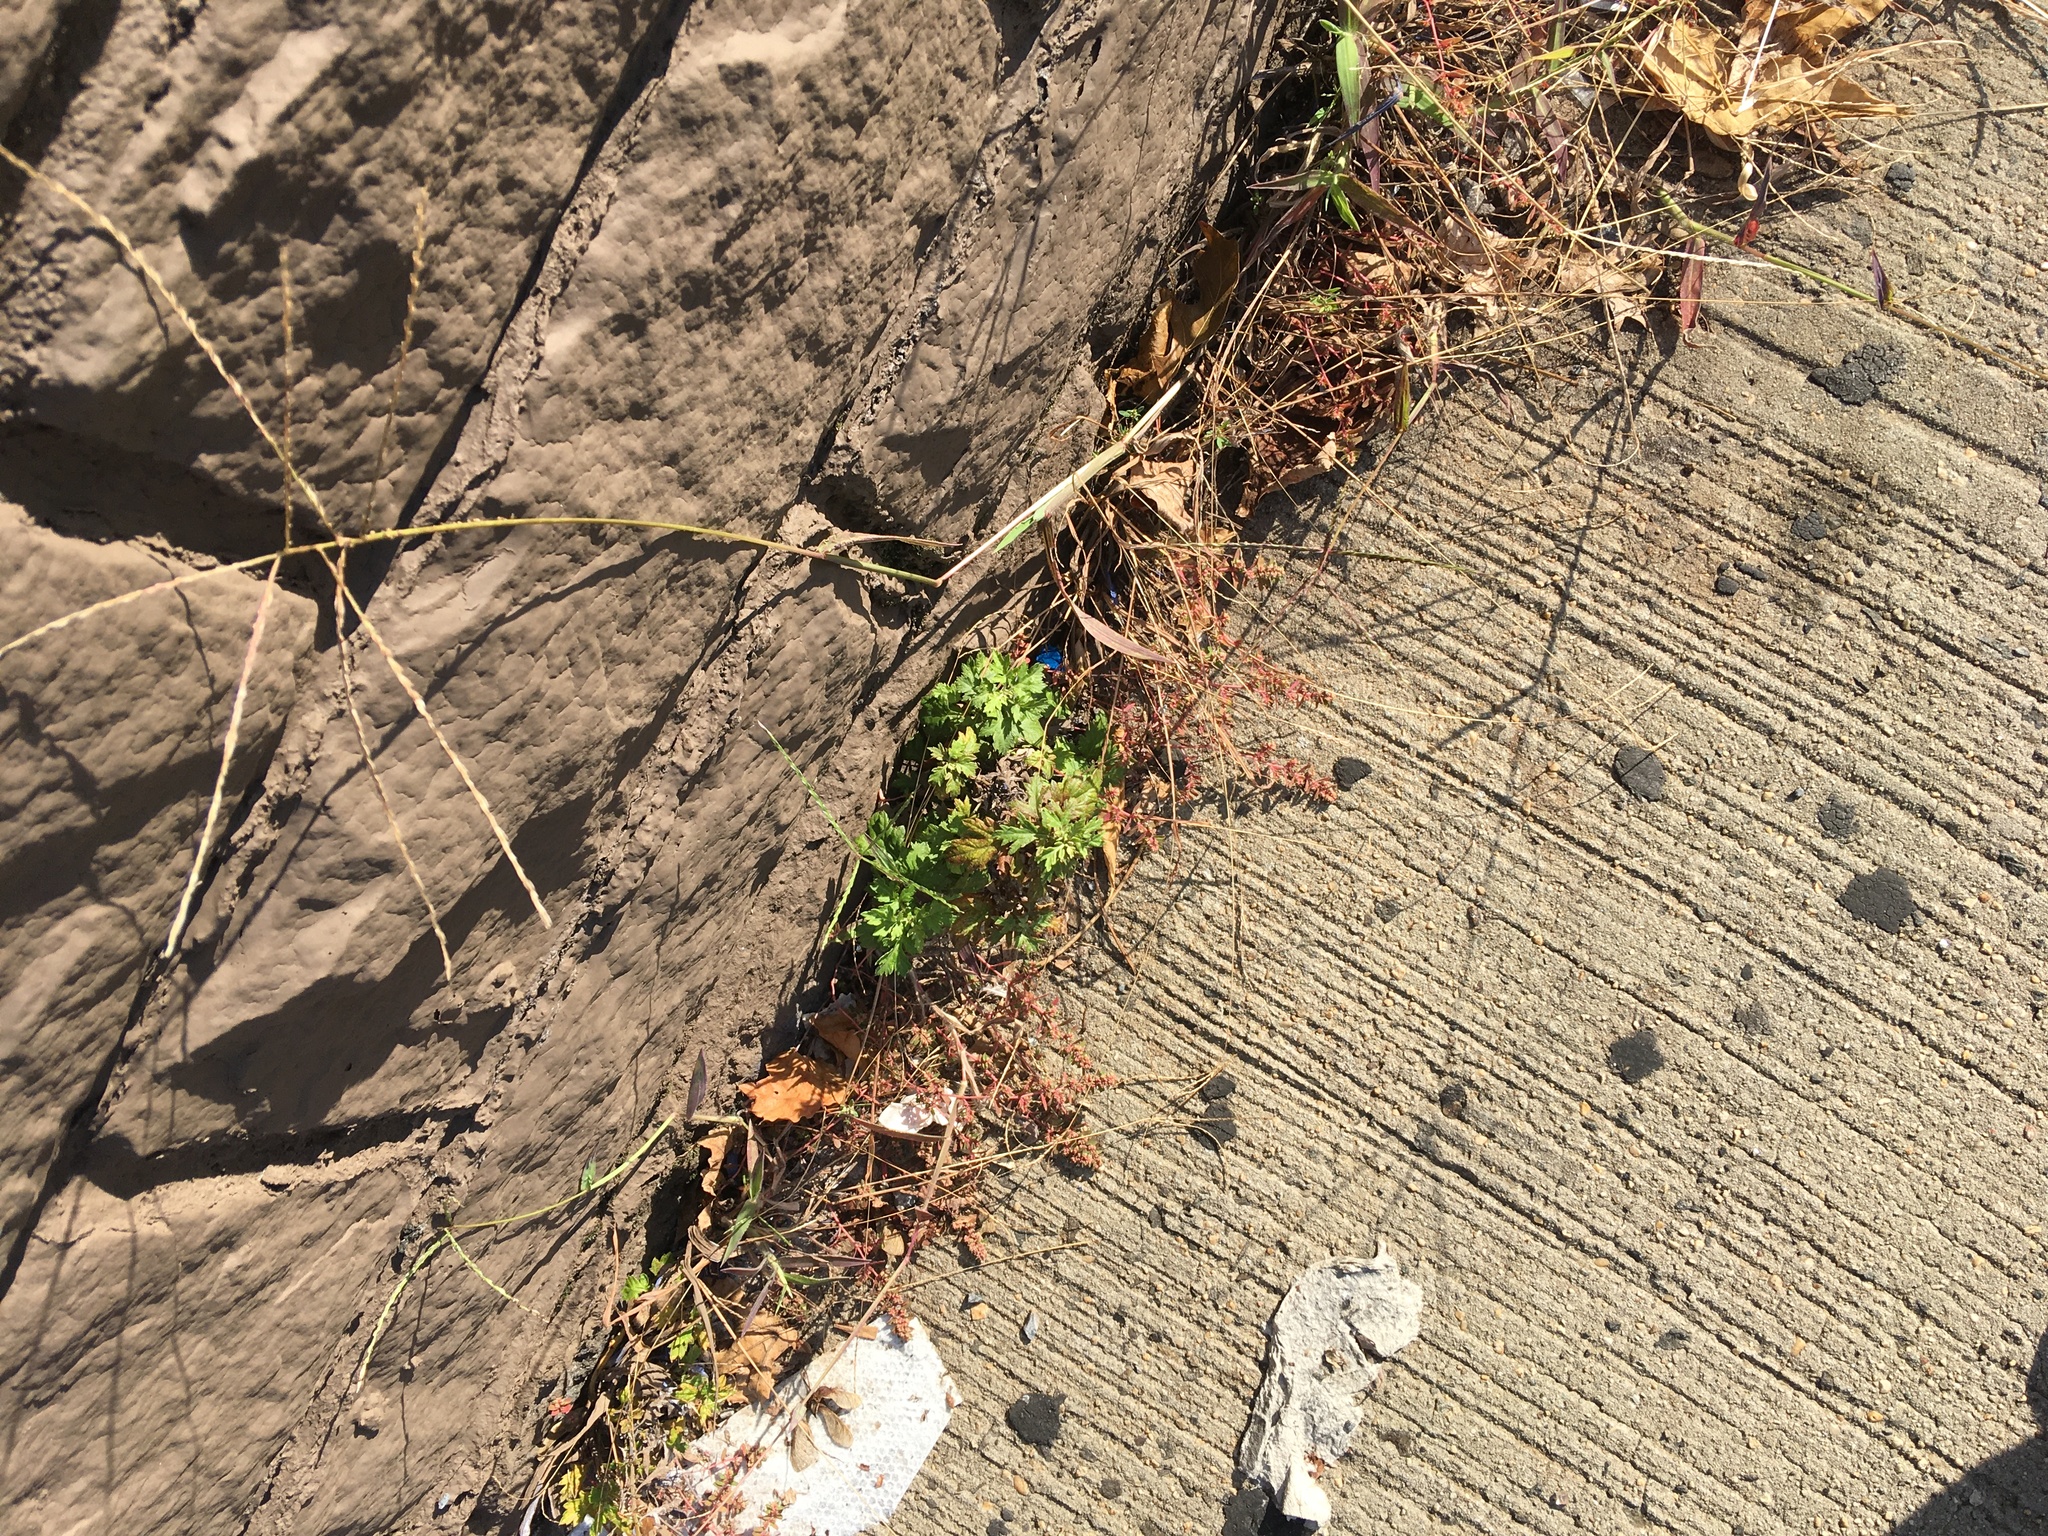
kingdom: Plantae
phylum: Tracheophyta
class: Magnoliopsida
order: Asterales
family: Asteraceae
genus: Artemisia
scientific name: Artemisia vulgaris
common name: Mugwort
